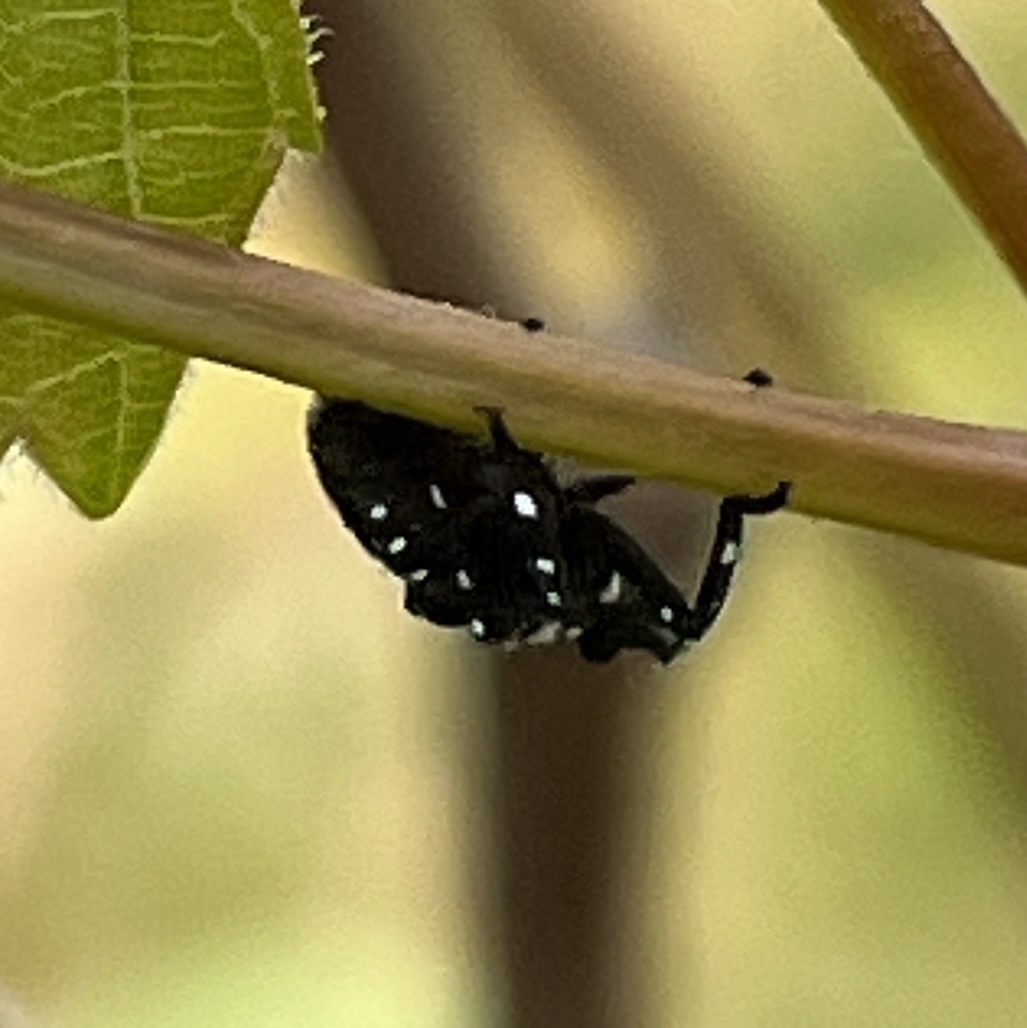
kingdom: Animalia
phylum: Arthropoda
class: Insecta
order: Hemiptera
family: Fulgoridae
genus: Lycorma
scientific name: Lycorma delicatula
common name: Spotted lanternfly
